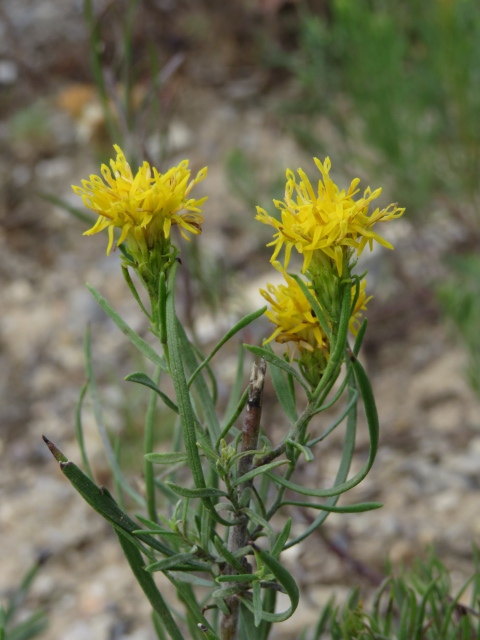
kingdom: Plantae
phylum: Tracheophyta
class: Magnoliopsida
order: Asterales
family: Asteraceae
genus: Galatella
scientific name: Galatella linosyris
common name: Goldilocks aster
